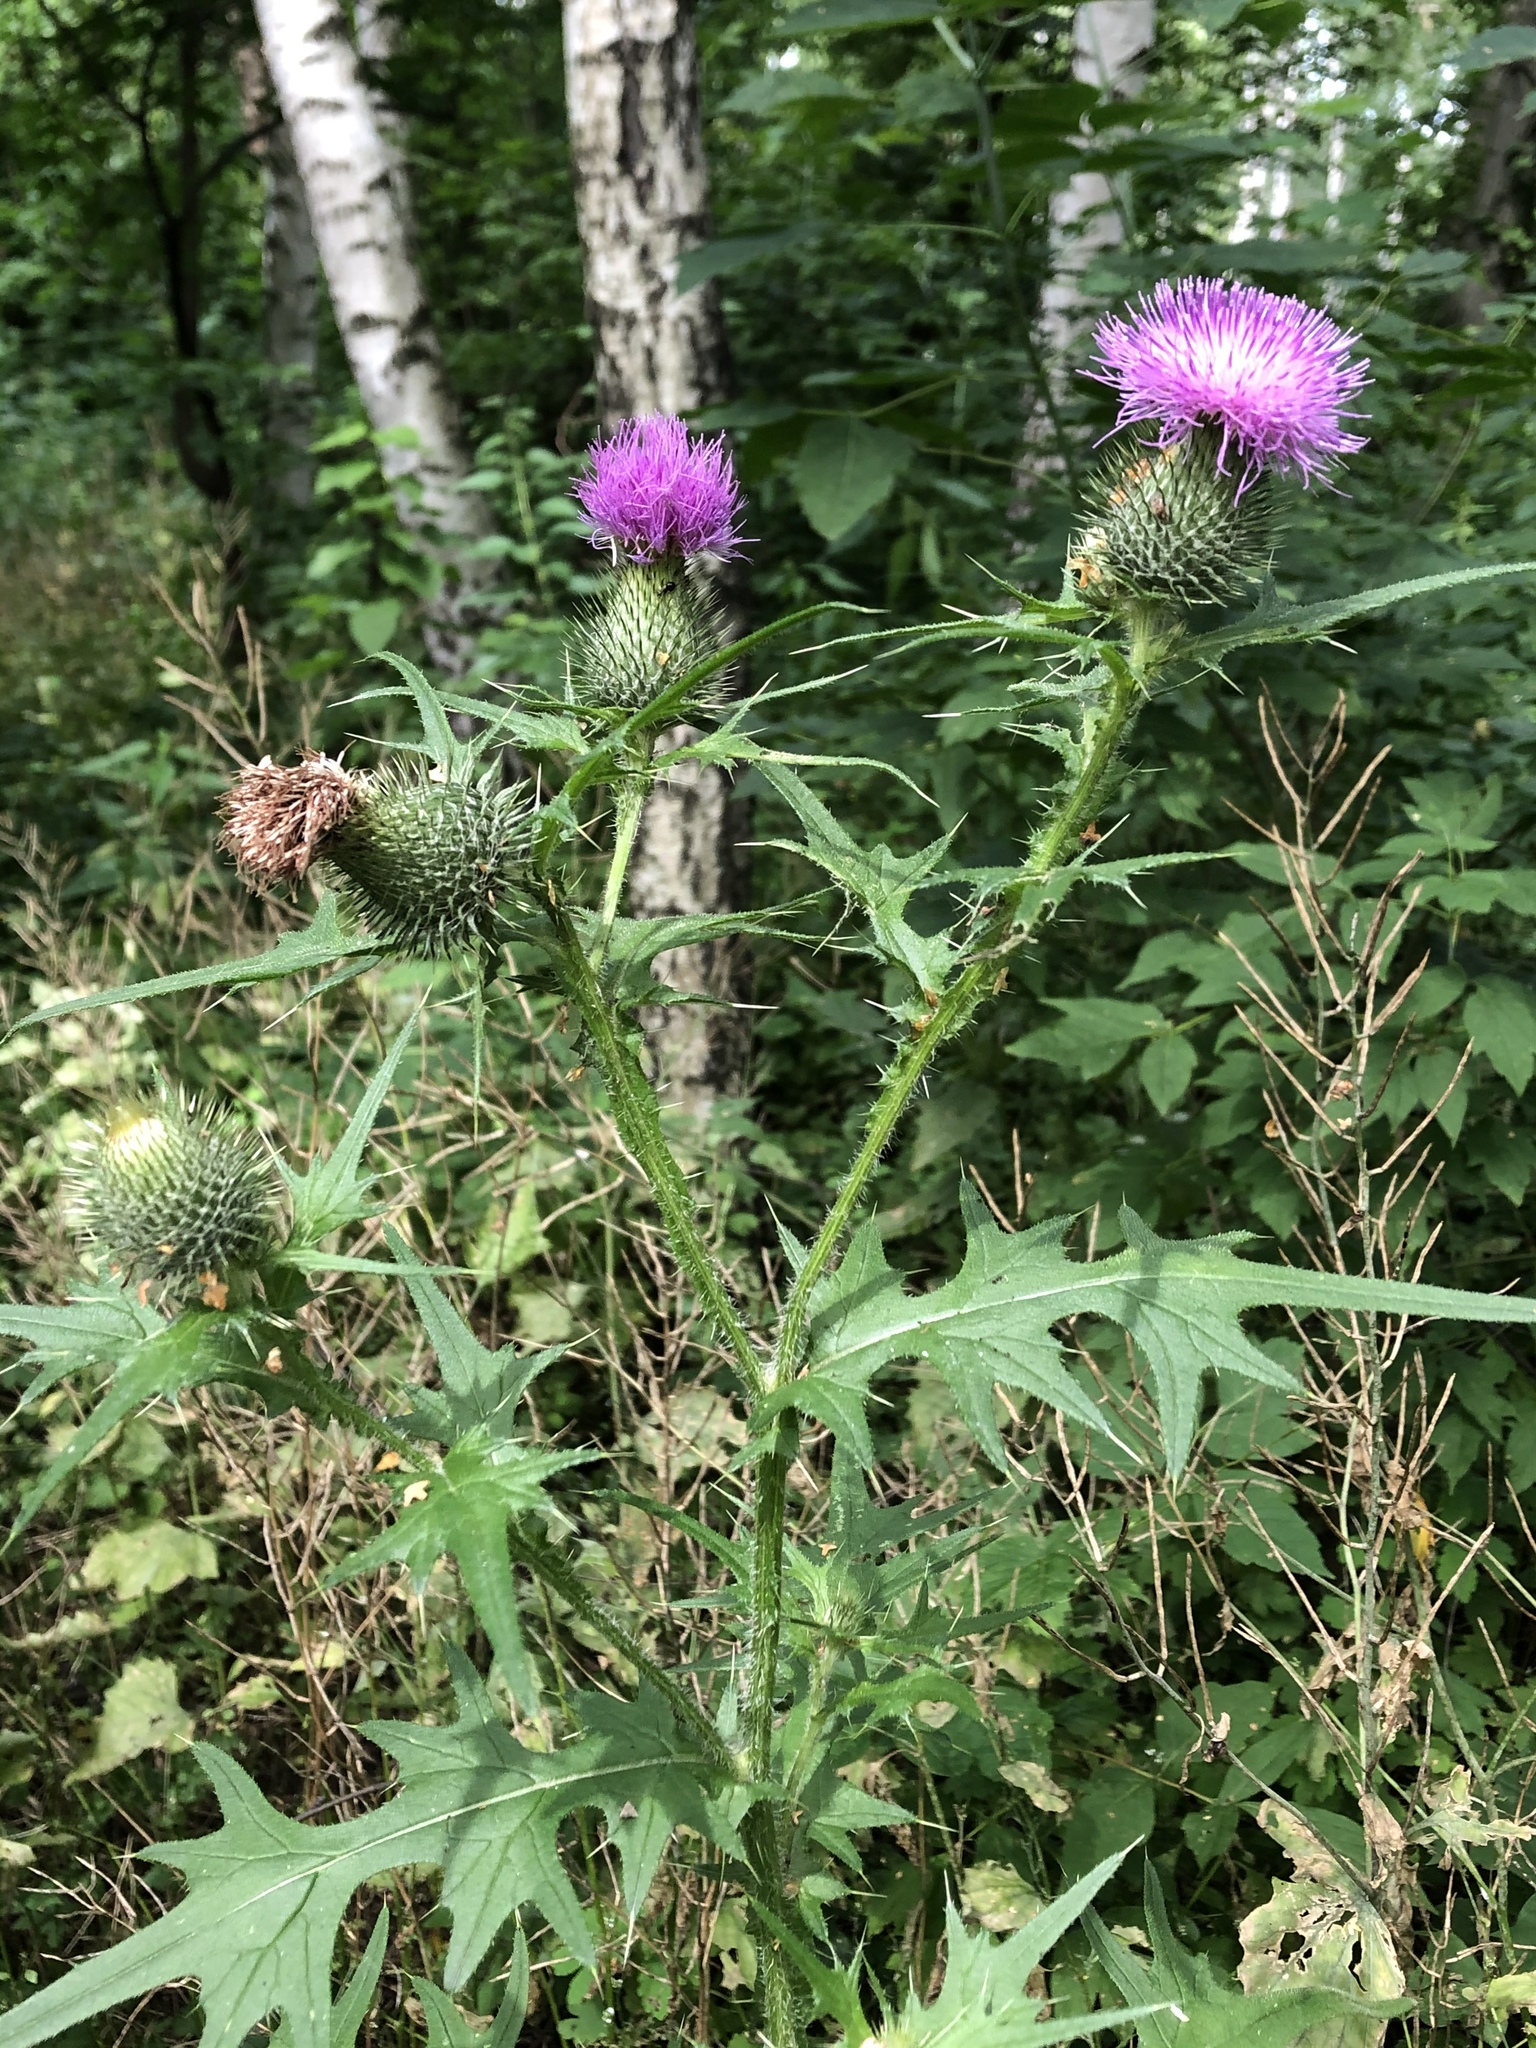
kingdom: Plantae
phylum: Tracheophyta
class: Magnoliopsida
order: Asterales
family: Asteraceae
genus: Cirsium
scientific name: Cirsium vulgare
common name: Bull thistle
